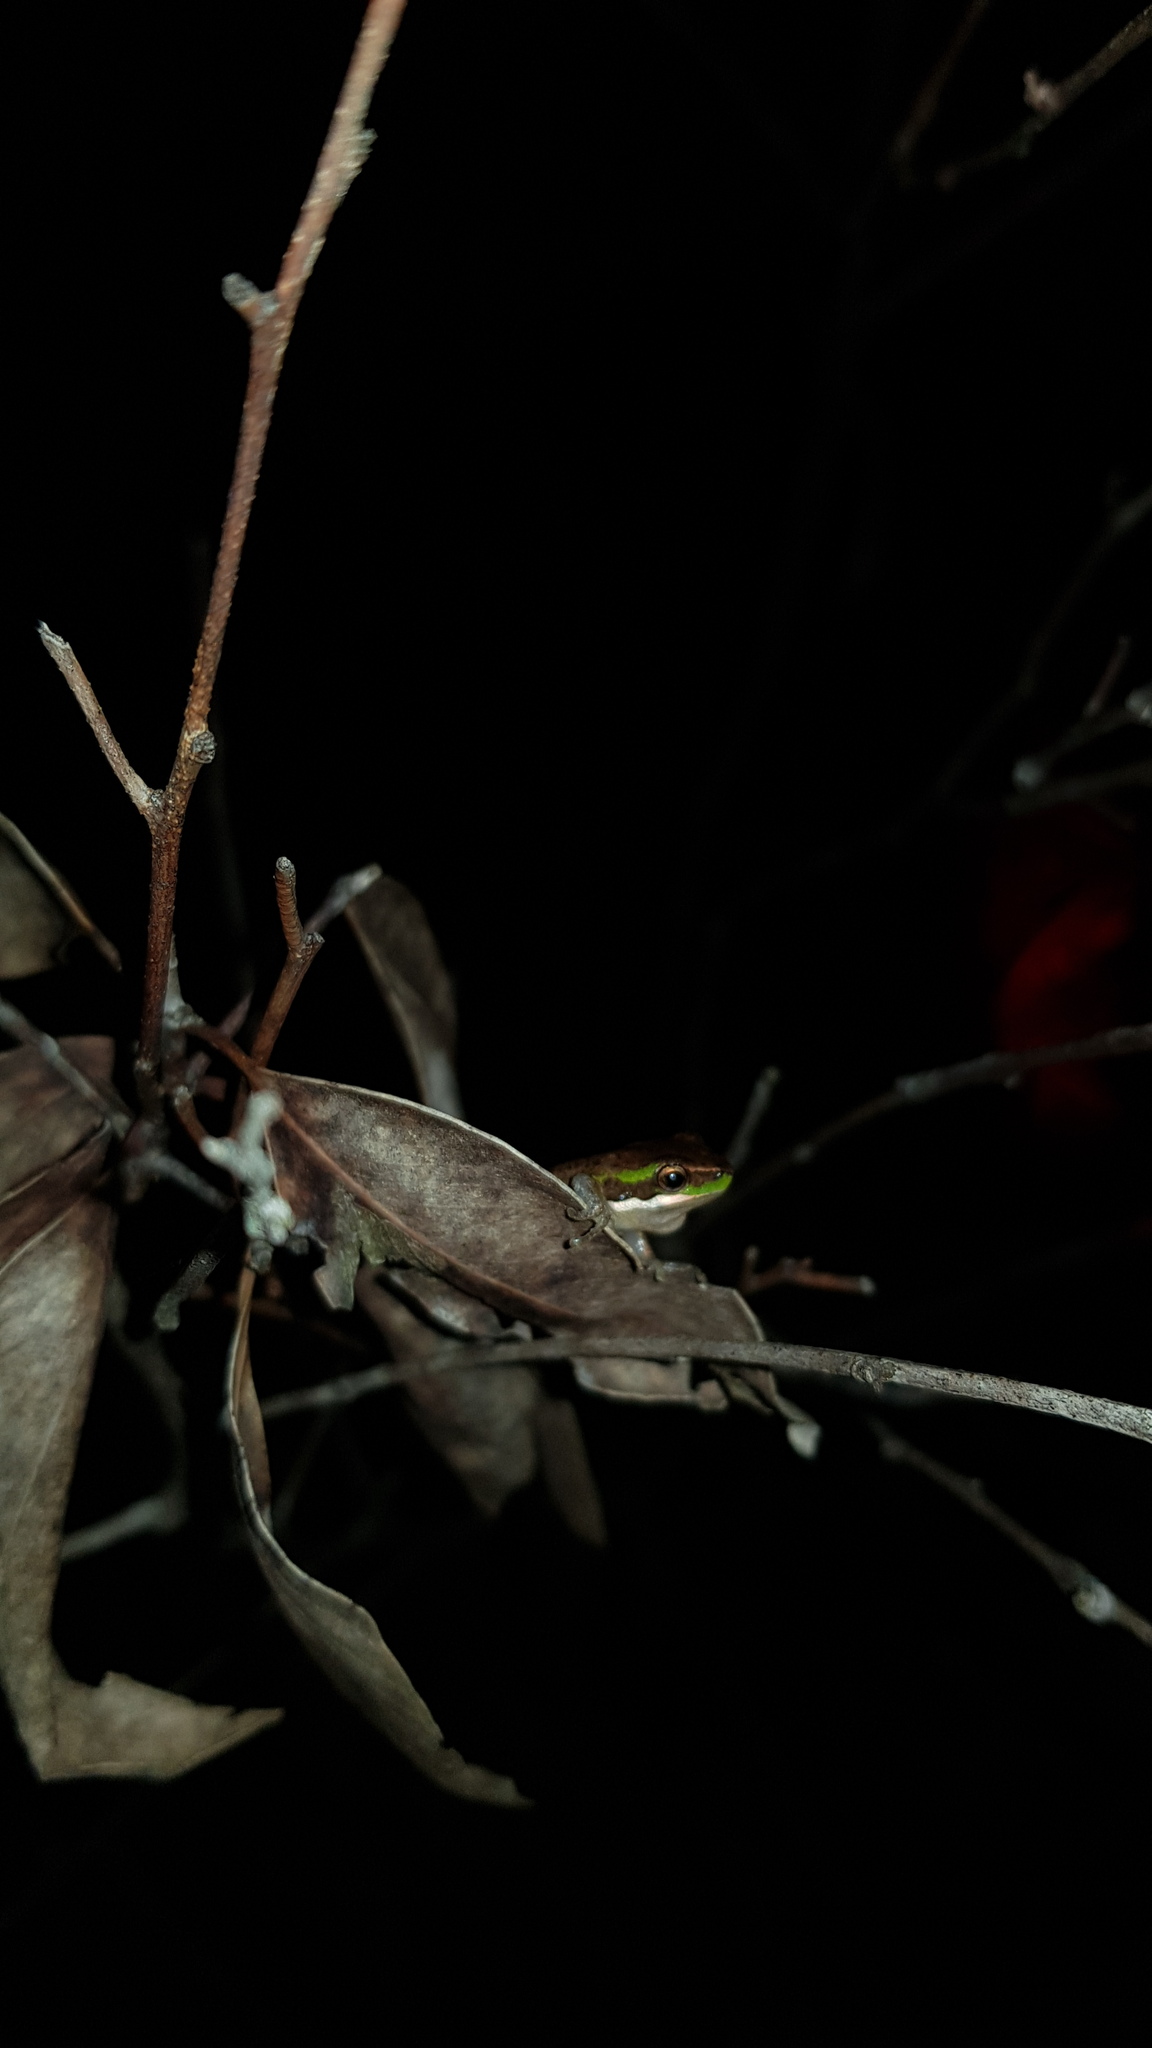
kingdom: Animalia
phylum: Chordata
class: Amphibia
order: Anura
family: Pelodryadidae
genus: Litoria
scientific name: Litoria fallax
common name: Eastern dwarf treefrog
